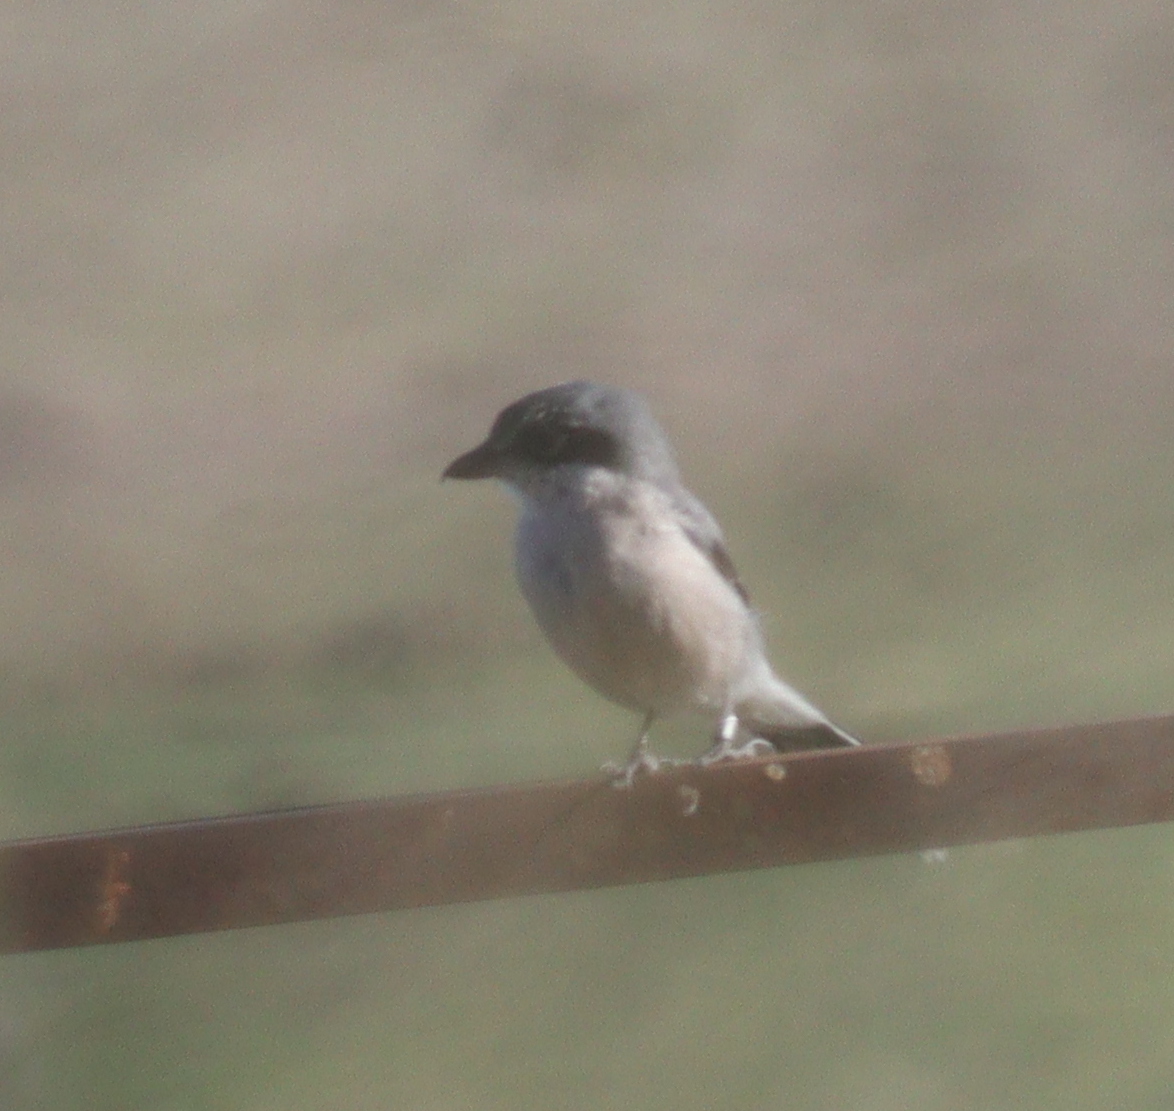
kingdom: Animalia
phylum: Chordata
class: Aves
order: Passeriformes
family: Laniidae
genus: Lanius
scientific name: Lanius meridionalis
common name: Iberian grey shrike
